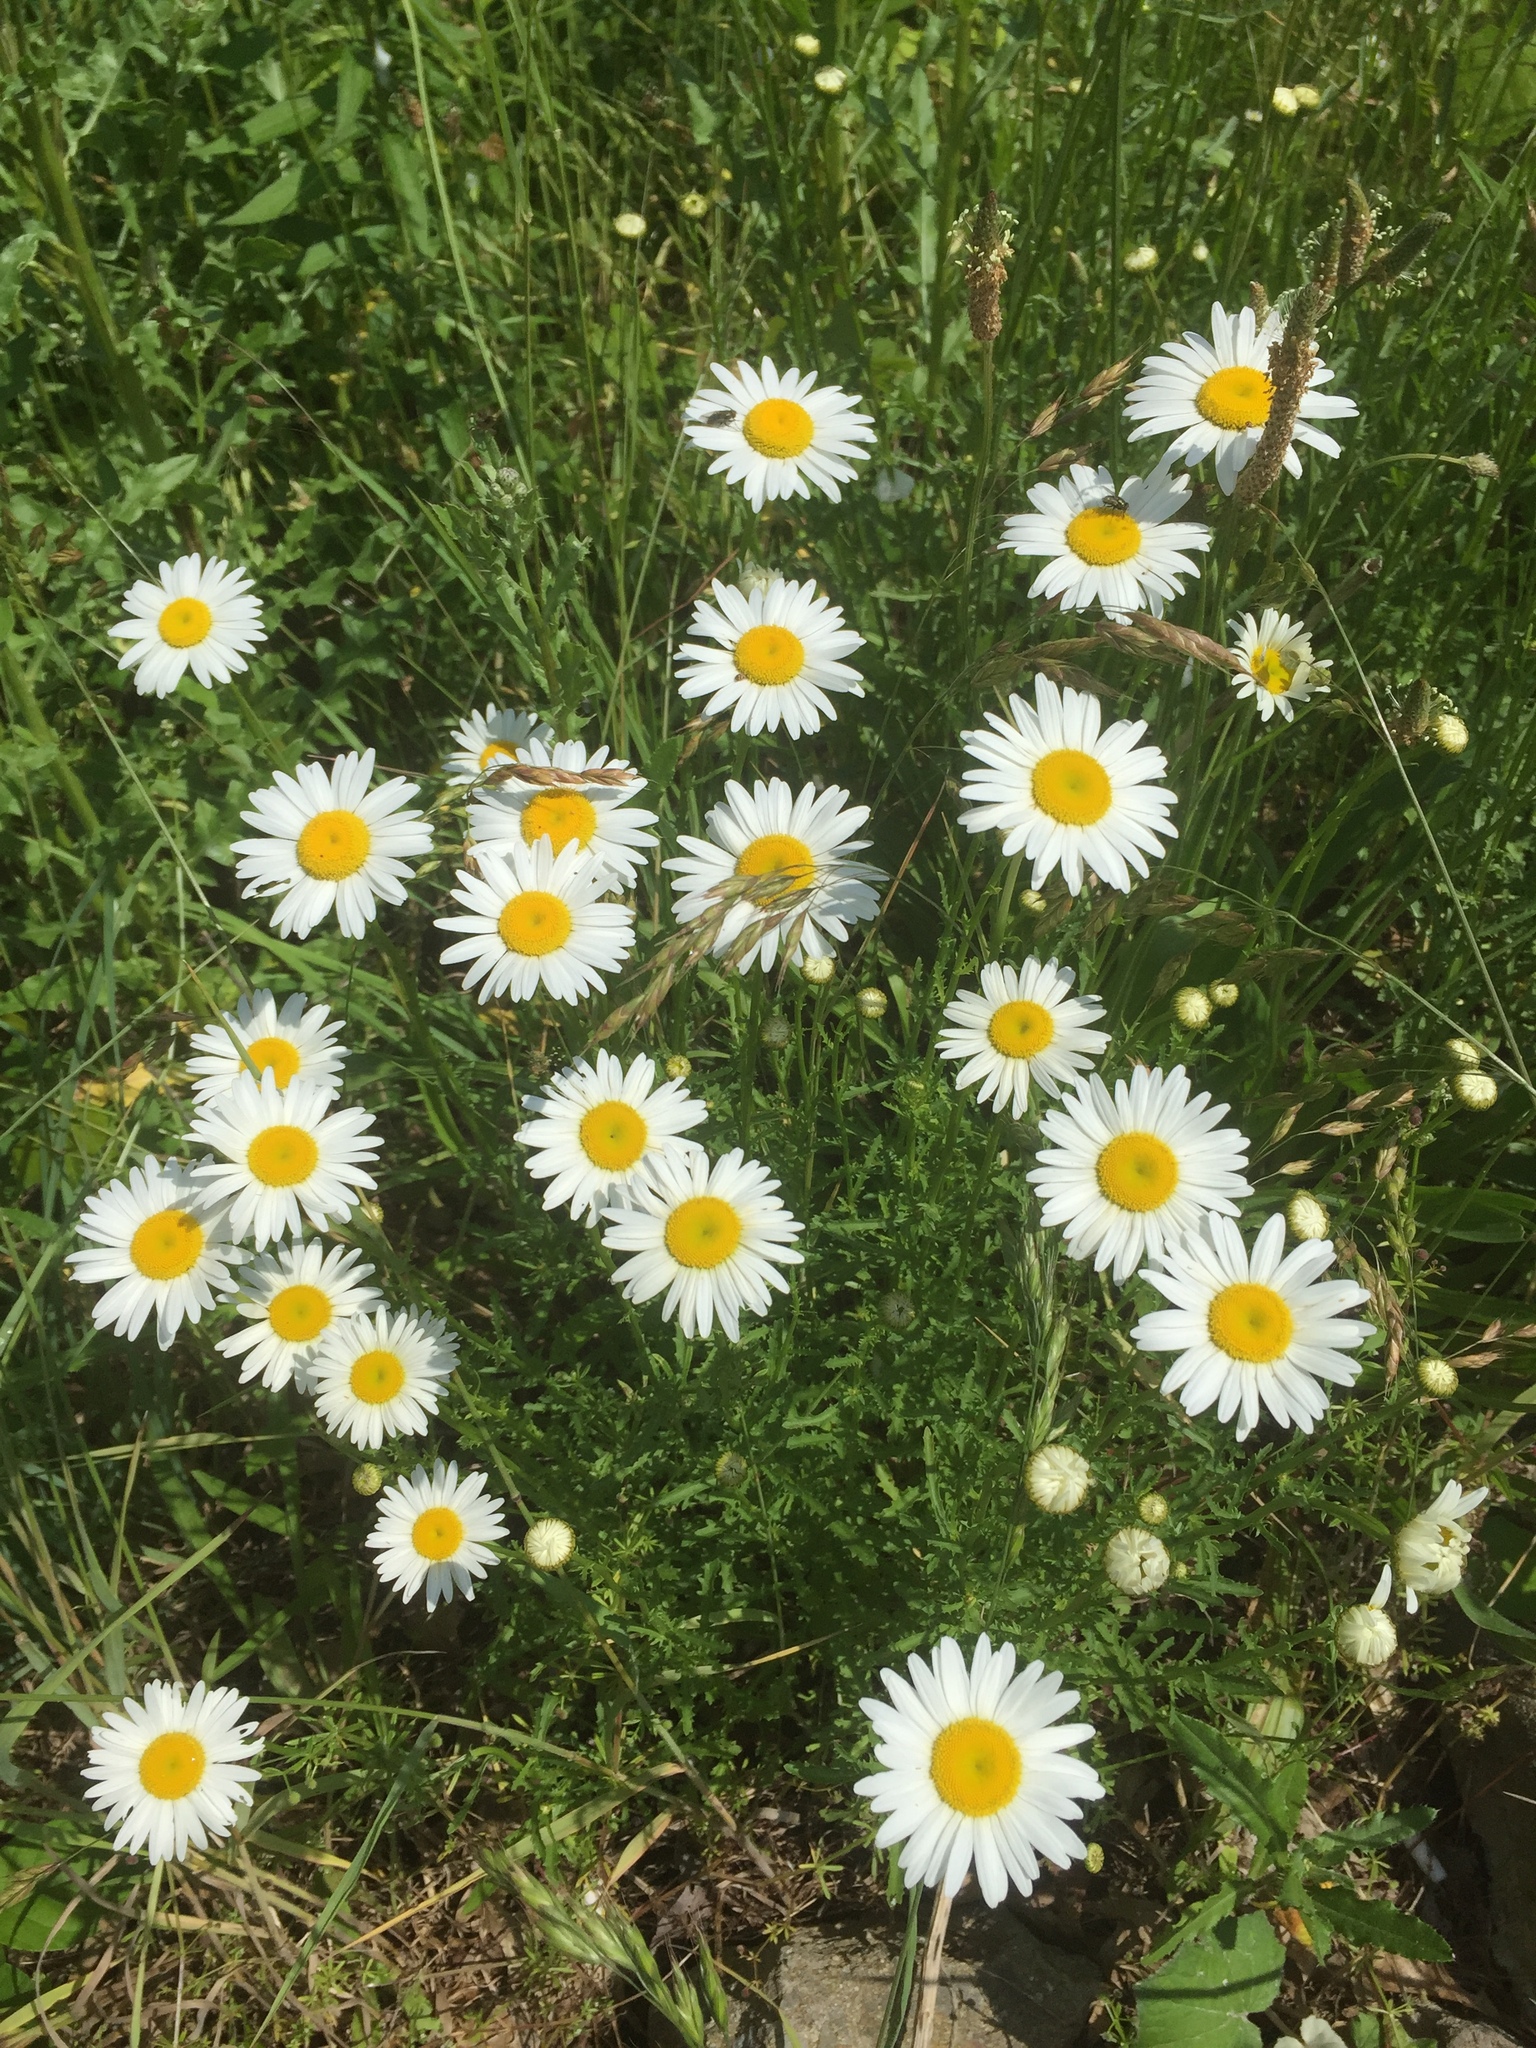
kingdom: Plantae
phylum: Tracheophyta
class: Magnoliopsida
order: Asterales
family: Asteraceae
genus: Leucanthemum
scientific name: Leucanthemum vulgare
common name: Oxeye daisy
